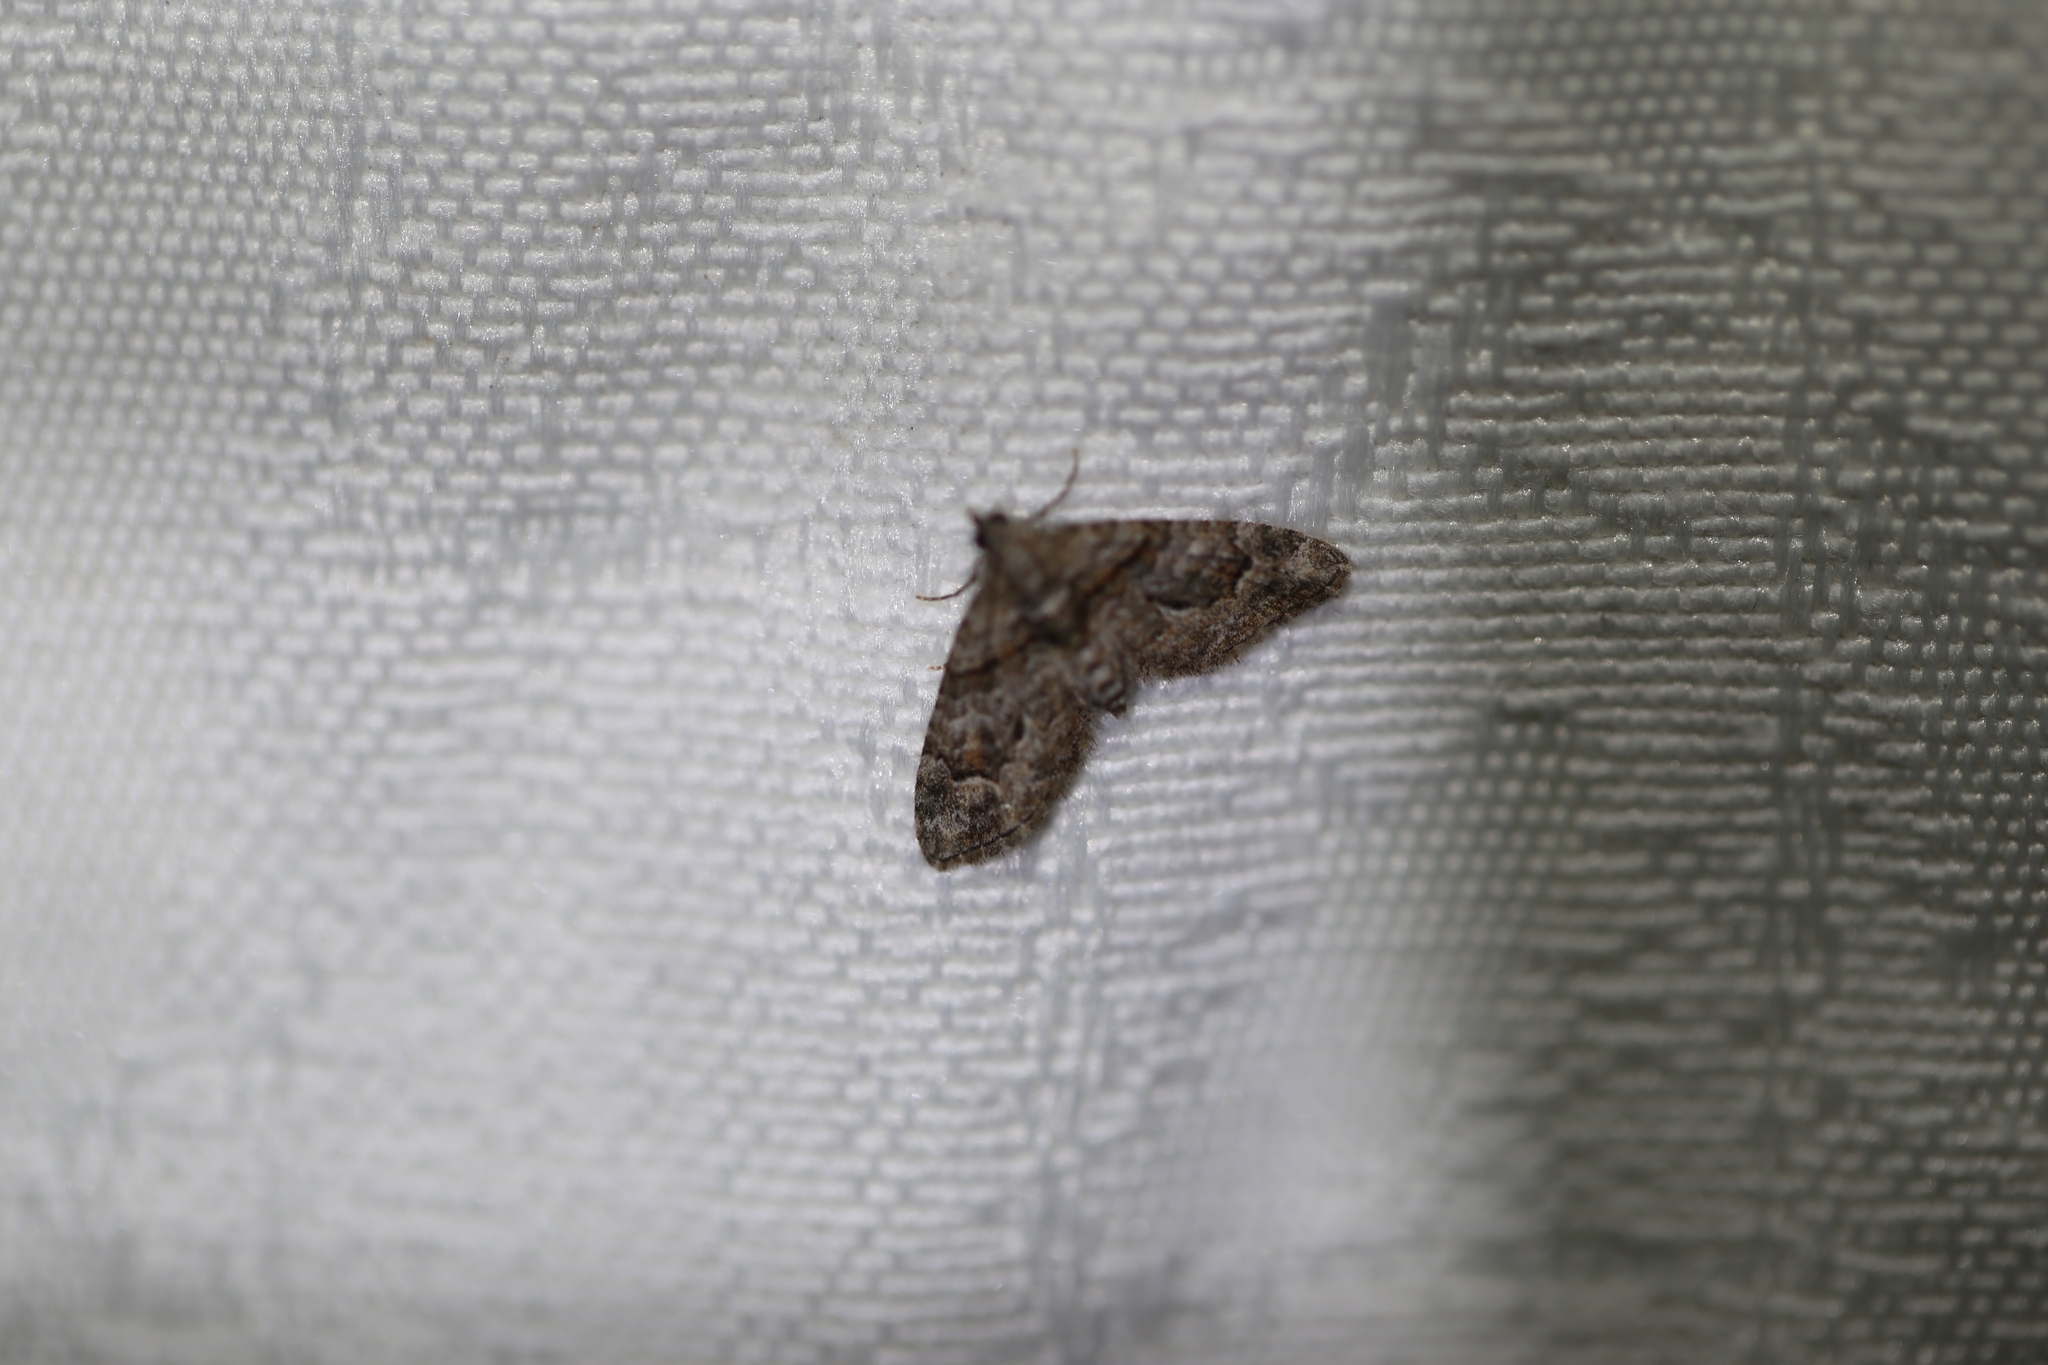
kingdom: Animalia
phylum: Arthropoda
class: Insecta
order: Lepidoptera
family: Geometridae
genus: Phrissogonus
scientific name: Phrissogonus laticostata
